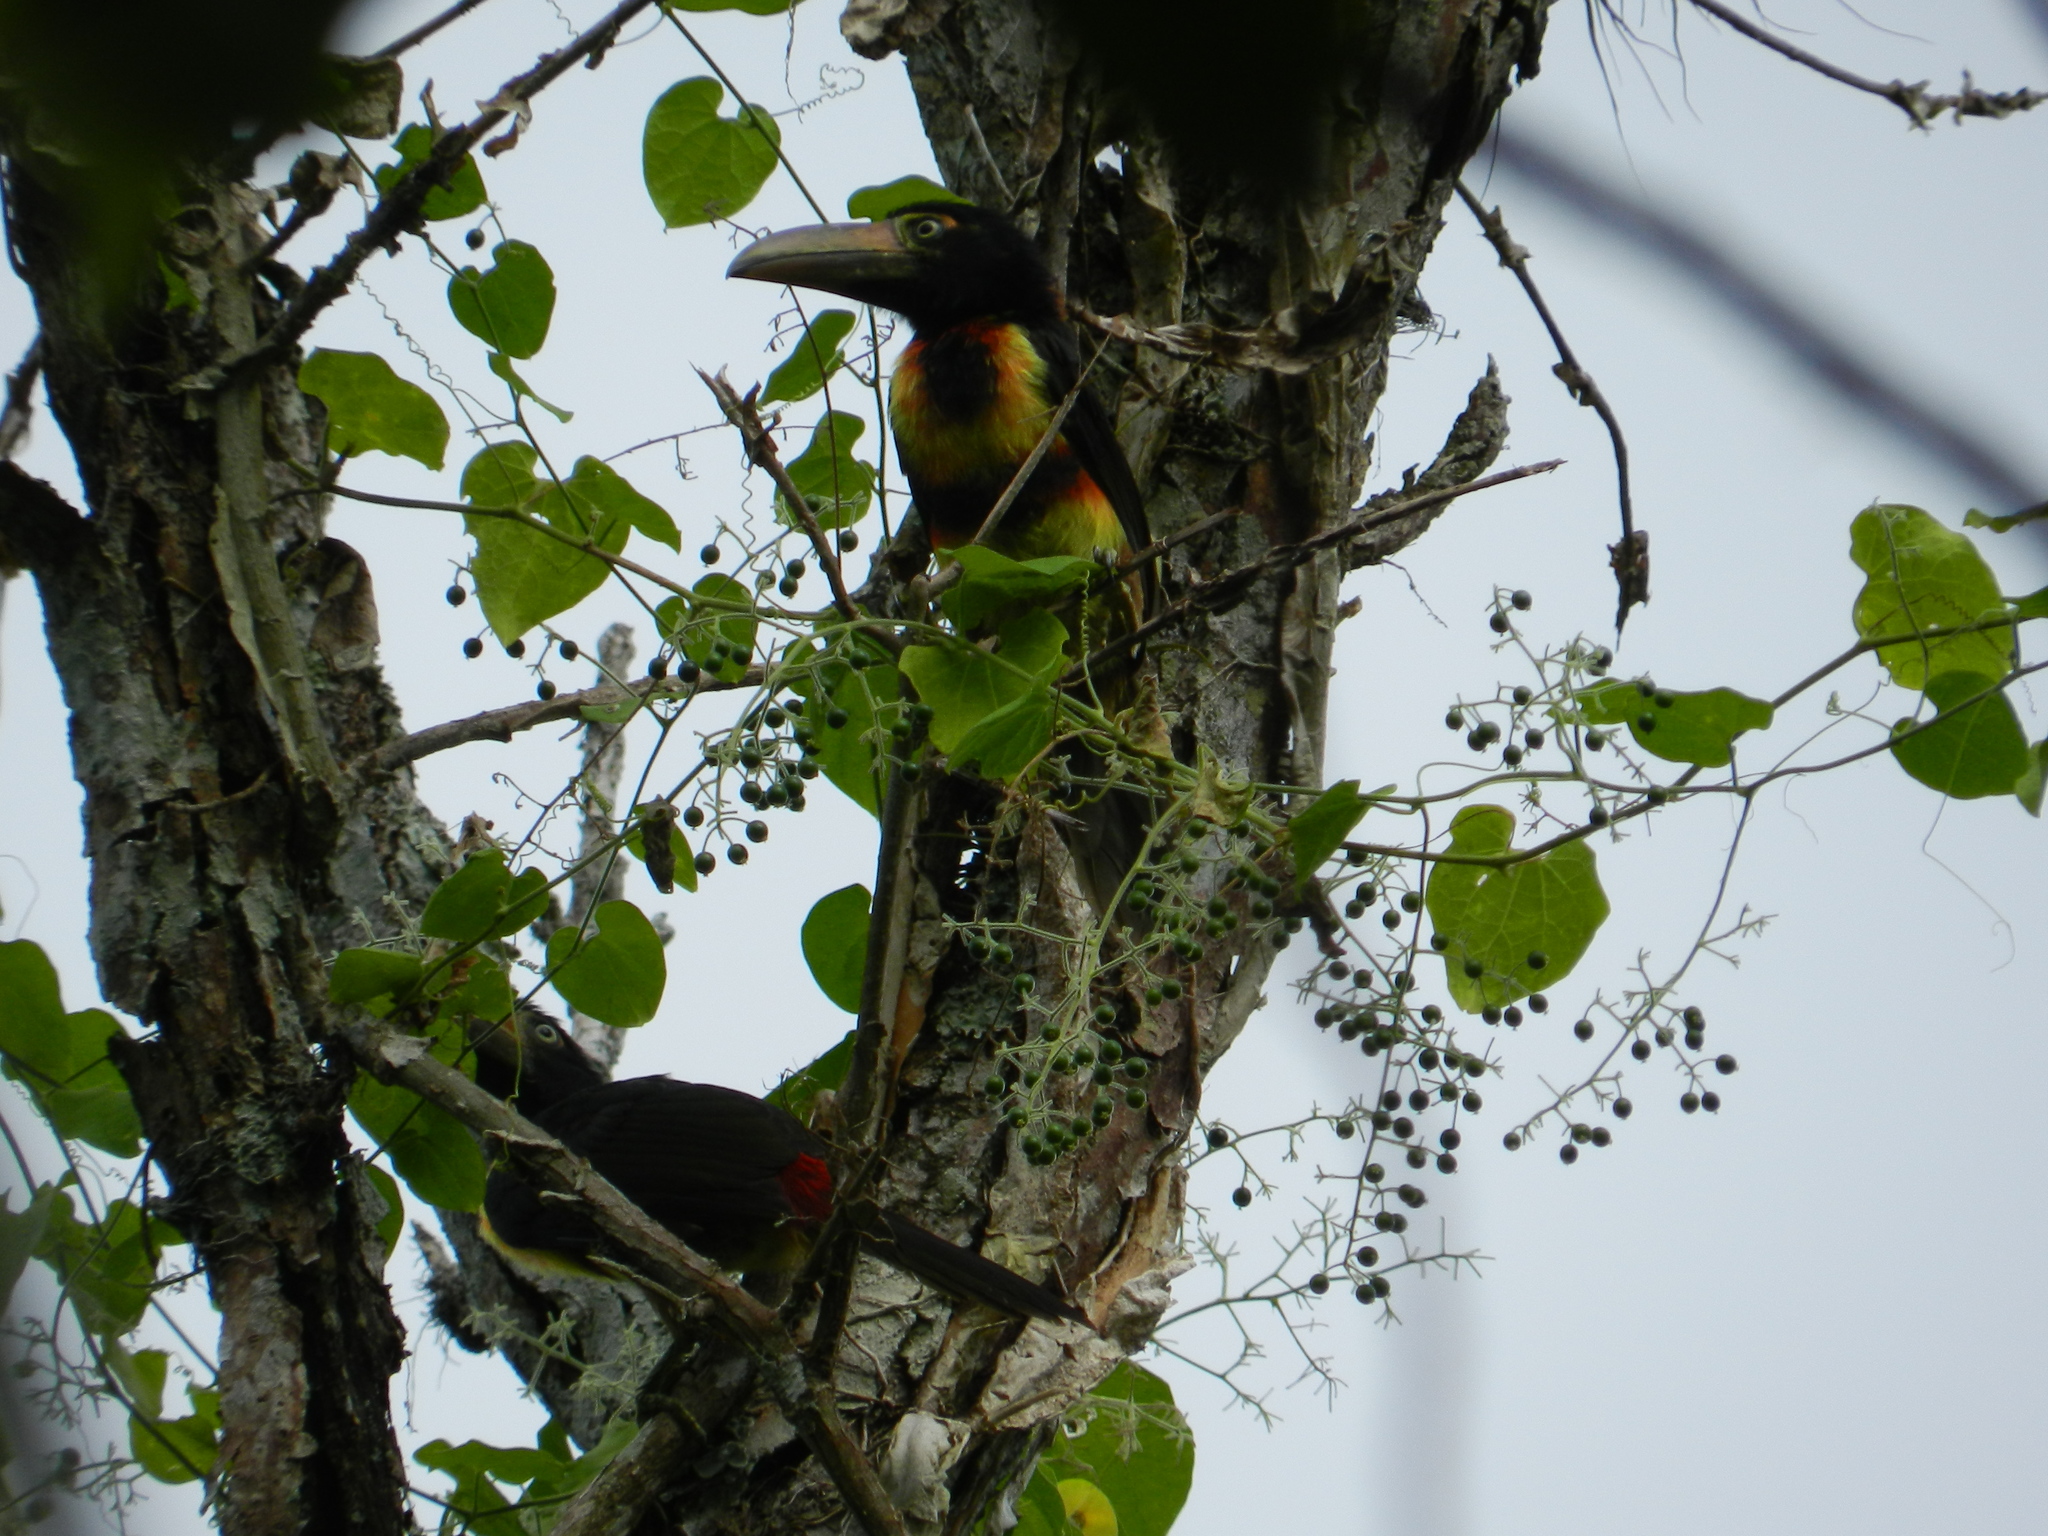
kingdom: Animalia
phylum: Chordata
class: Aves
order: Piciformes
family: Ramphastidae
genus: Pteroglossus
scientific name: Pteroglossus torquatus
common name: Collared aracari
